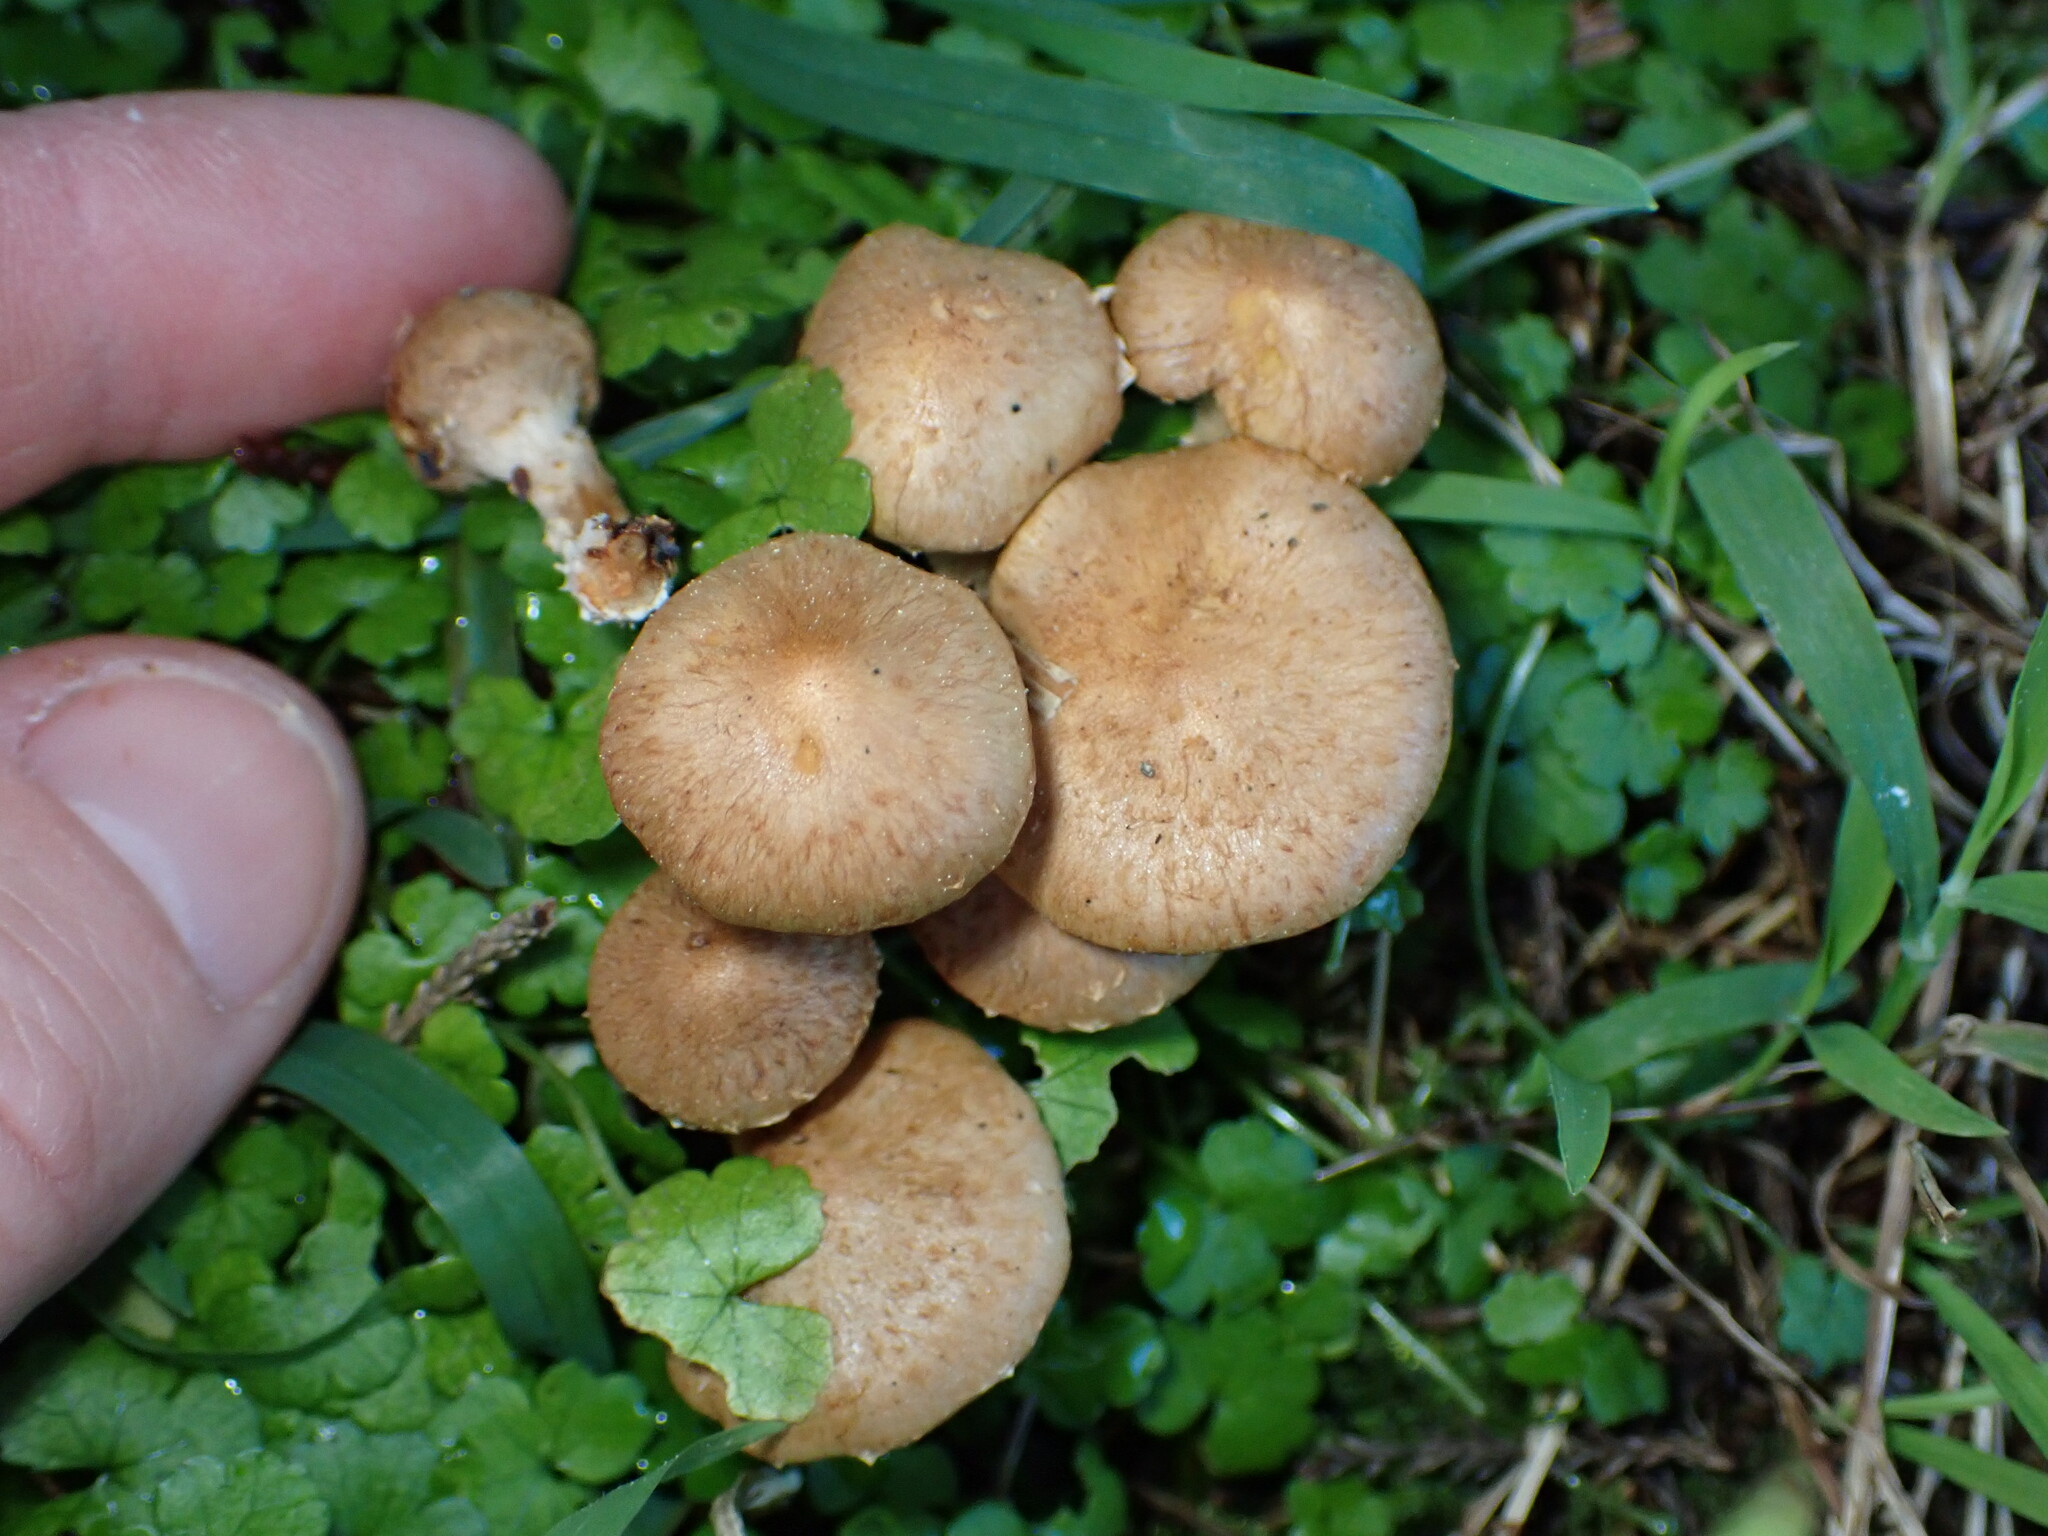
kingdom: Fungi
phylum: Basidiomycota
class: Agaricomycetes
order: Agaricales
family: Strophariaceae
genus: Pholiota
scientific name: Pholiota gummosa
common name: Sticky scalycap
